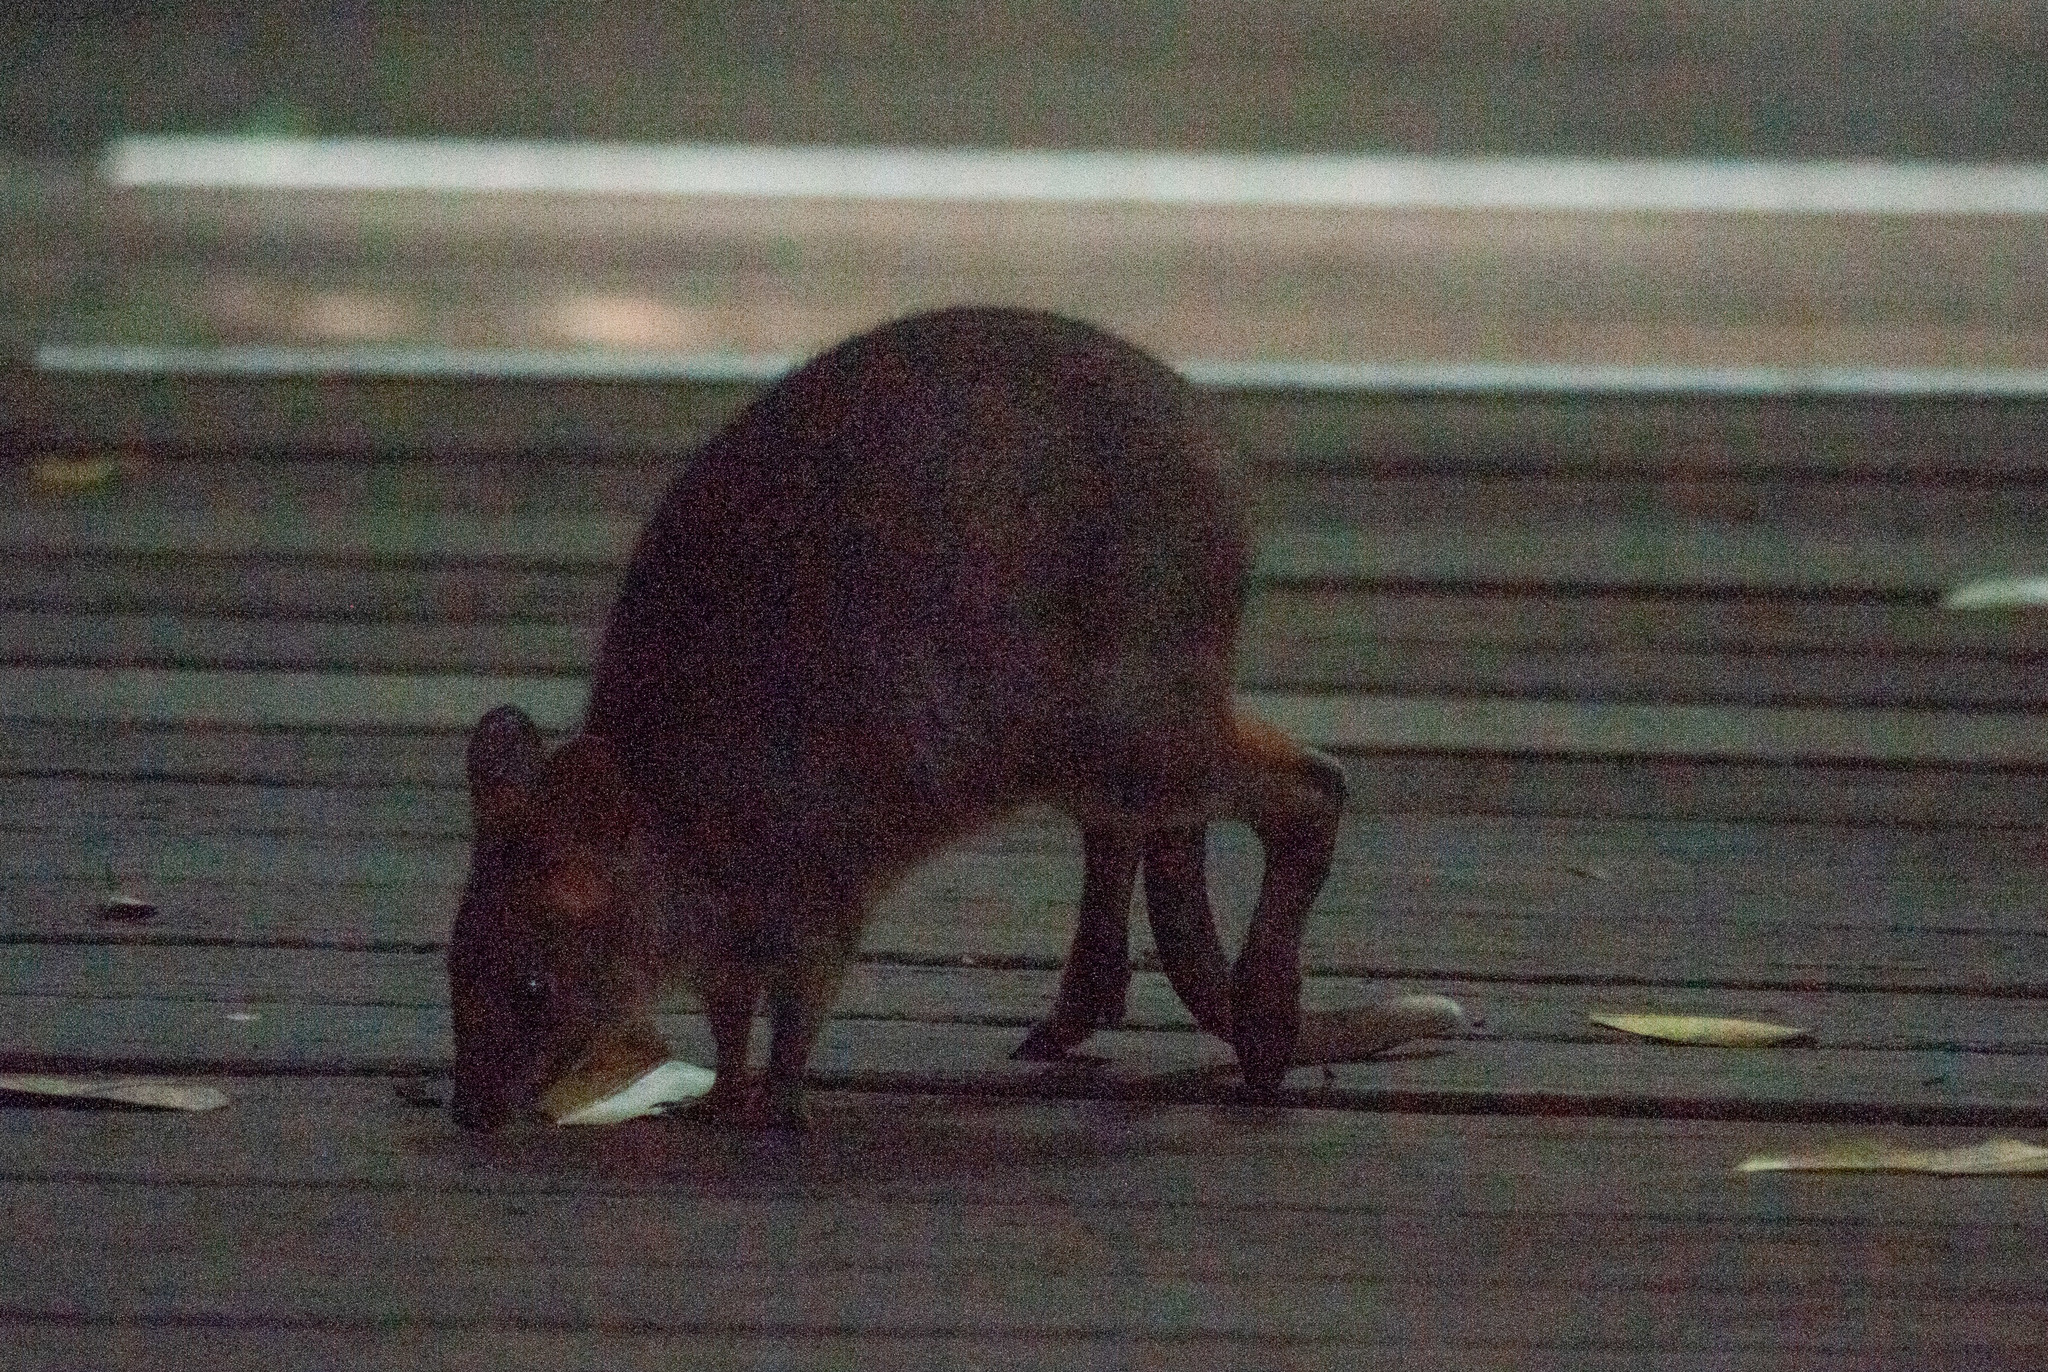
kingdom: Animalia
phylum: Chordata
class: Mammalia
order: Diprotodontia
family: Macropodidae
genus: Thylogale
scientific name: Thylogale stigmatica
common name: Red-legged pademelon
